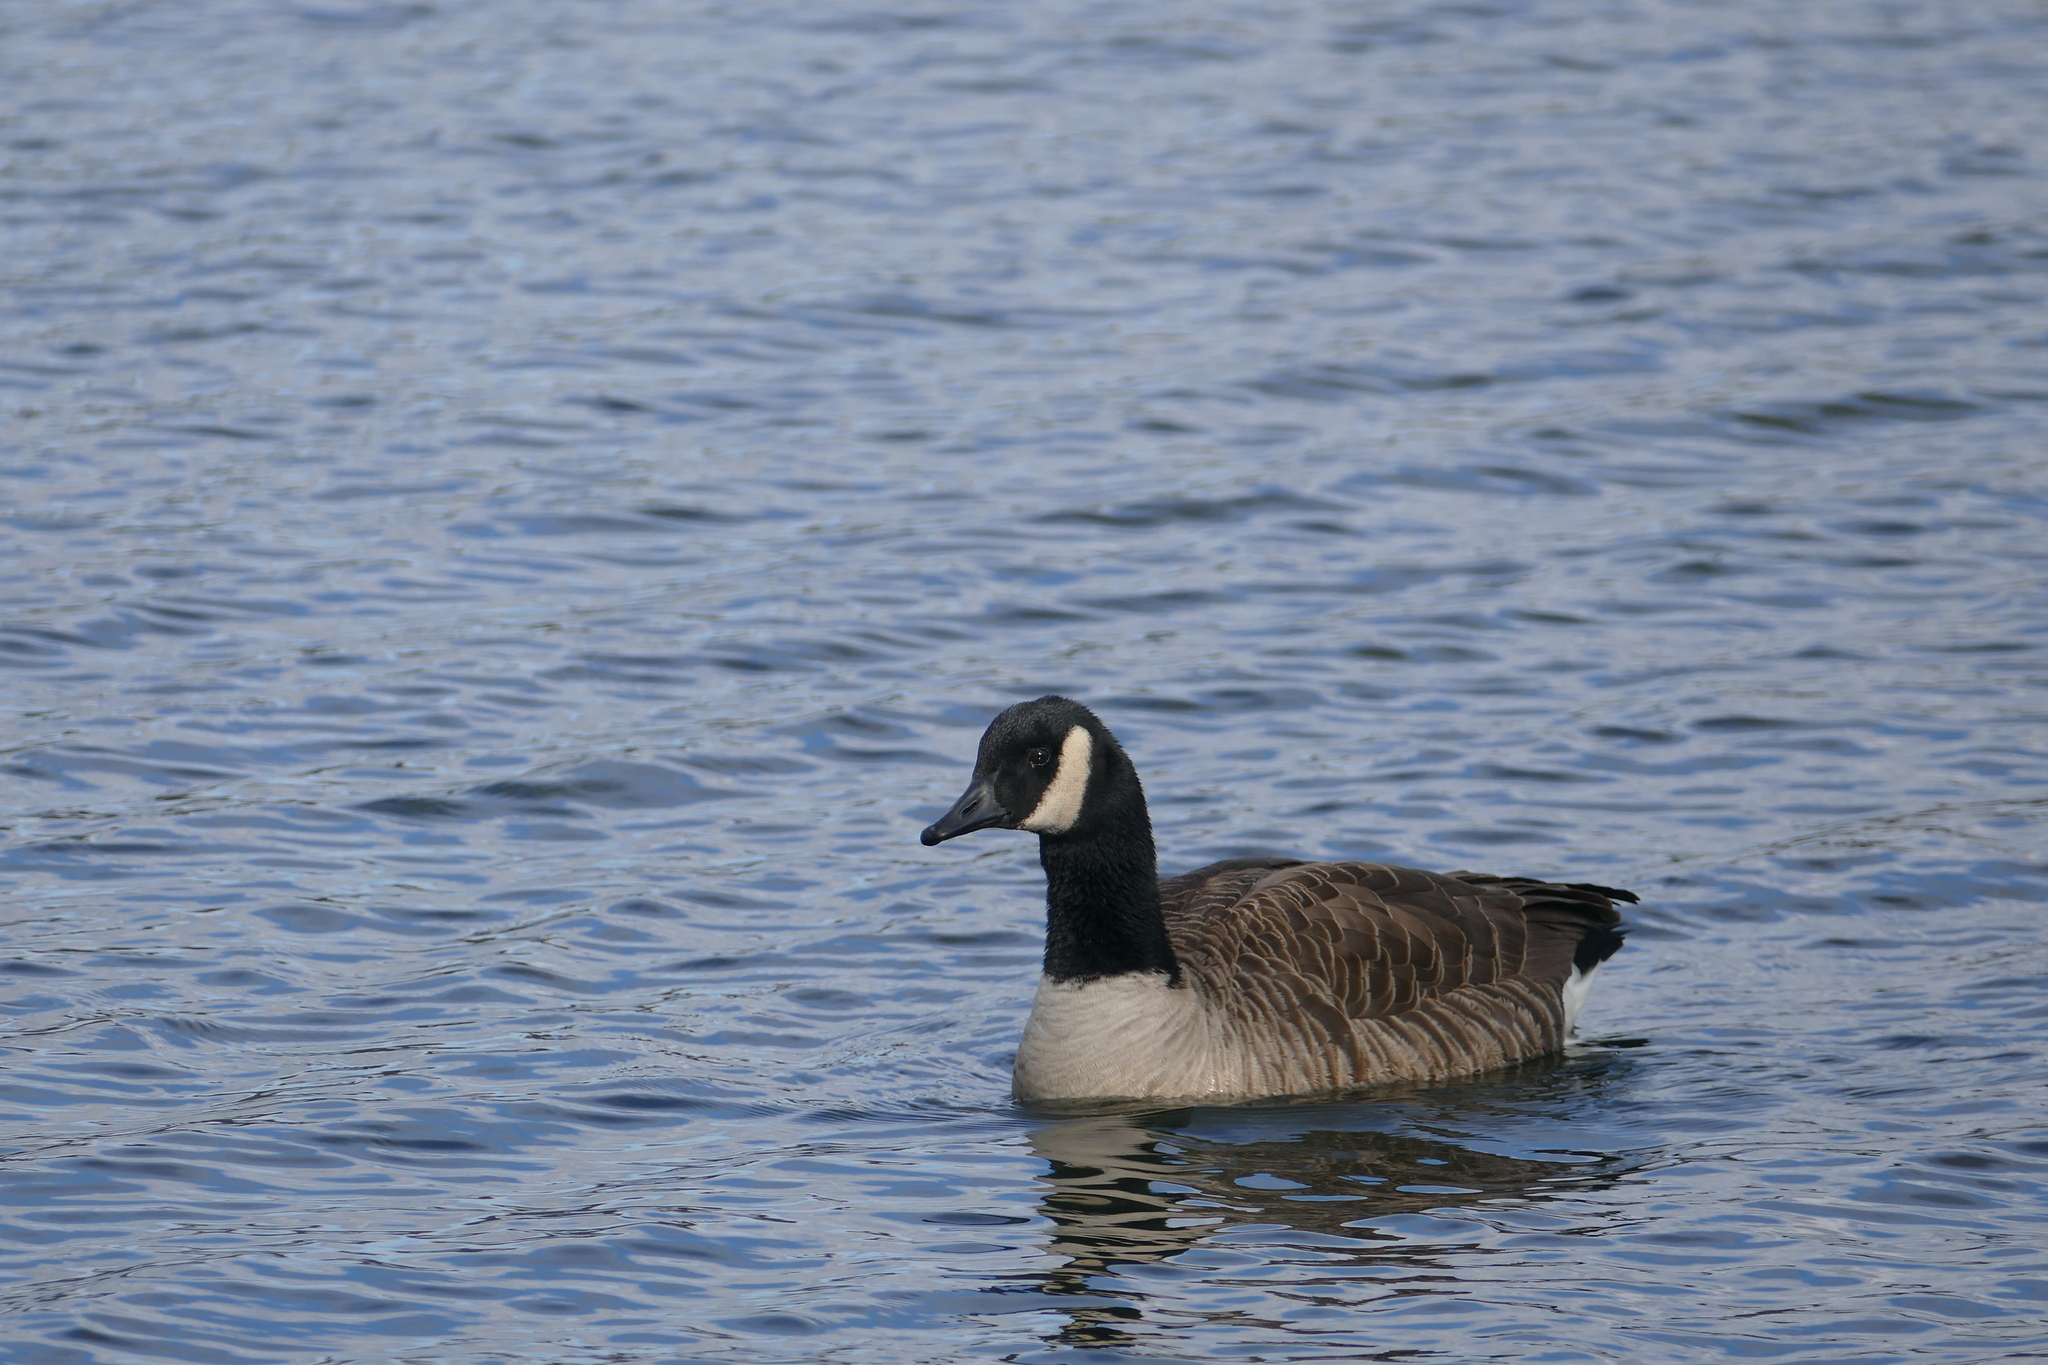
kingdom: Animalia
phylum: Chordata
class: Aves
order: Anseriformes
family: Anatidae
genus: Branta
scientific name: Branta canadensis
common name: Canada goose
